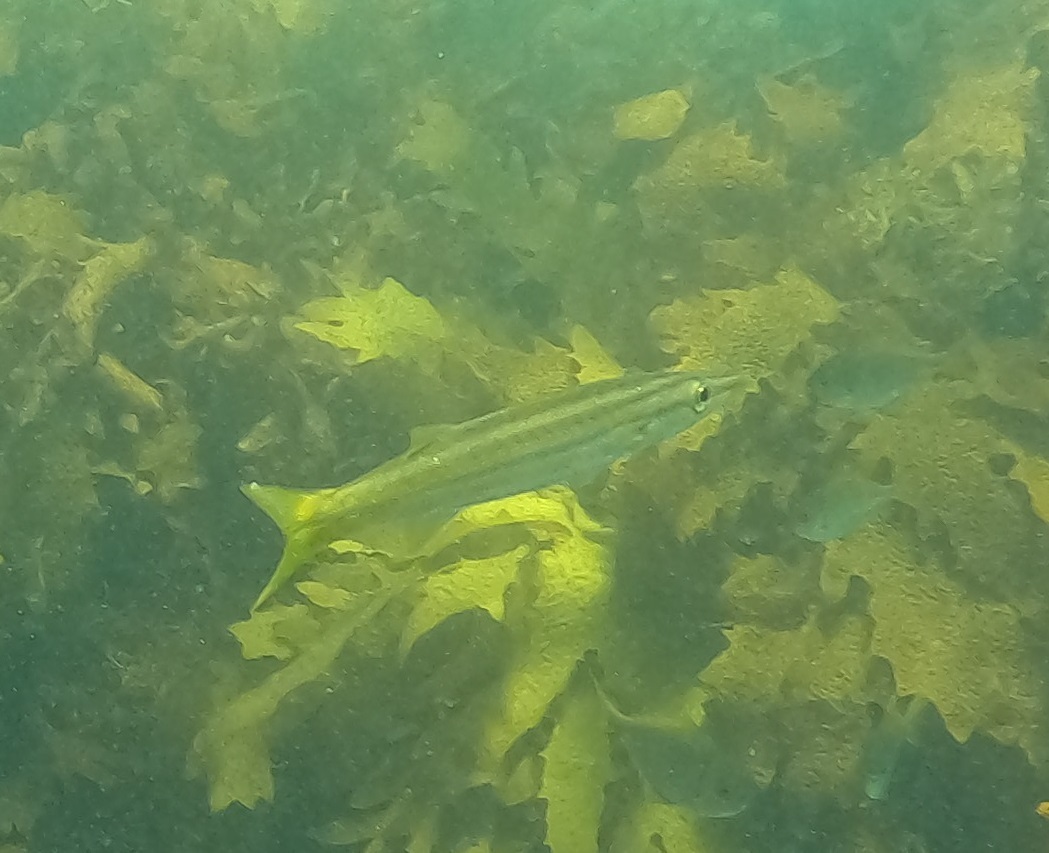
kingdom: Animalia
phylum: Chordata
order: Perciformes
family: Sphyraenidae
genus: Sphyraena
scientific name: Sphyraena obtusata
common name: Obtuse barracuda
